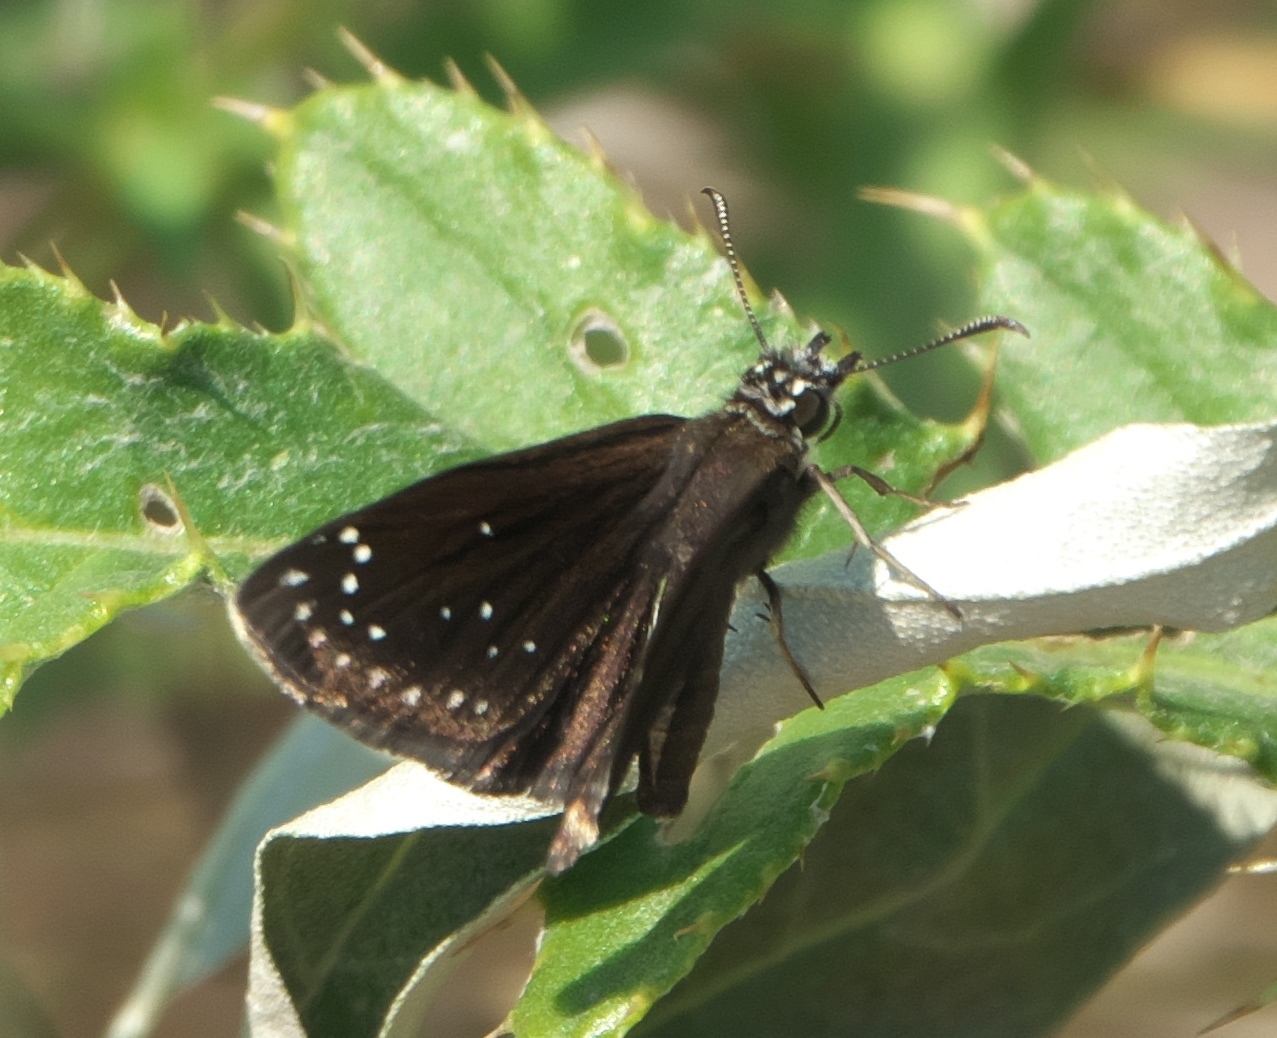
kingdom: Animalia
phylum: Arthropoda
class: Insecta
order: Lepidoptera
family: Hesperiidae
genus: Pholisora
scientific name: Pholisora catullus
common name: Common sootywing
